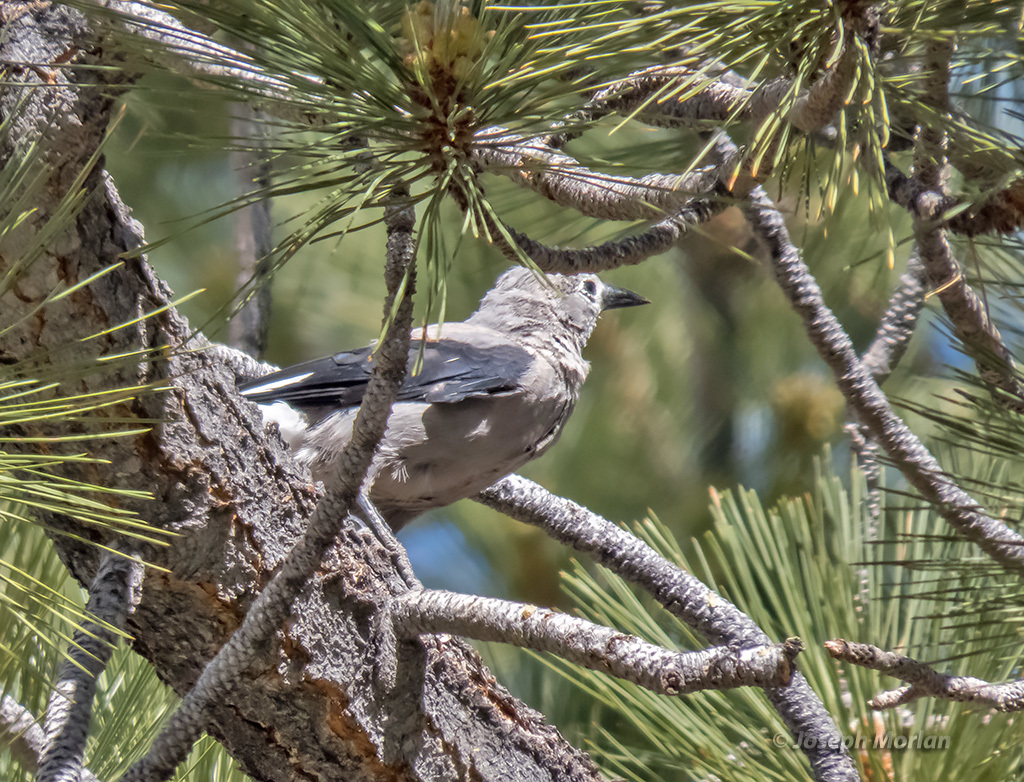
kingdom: Animalia
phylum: Chordata
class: Aves
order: Passeriformes
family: Corvidae
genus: Nucifraga
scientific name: Nucifraga columbiana
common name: Clark's nutcracker
